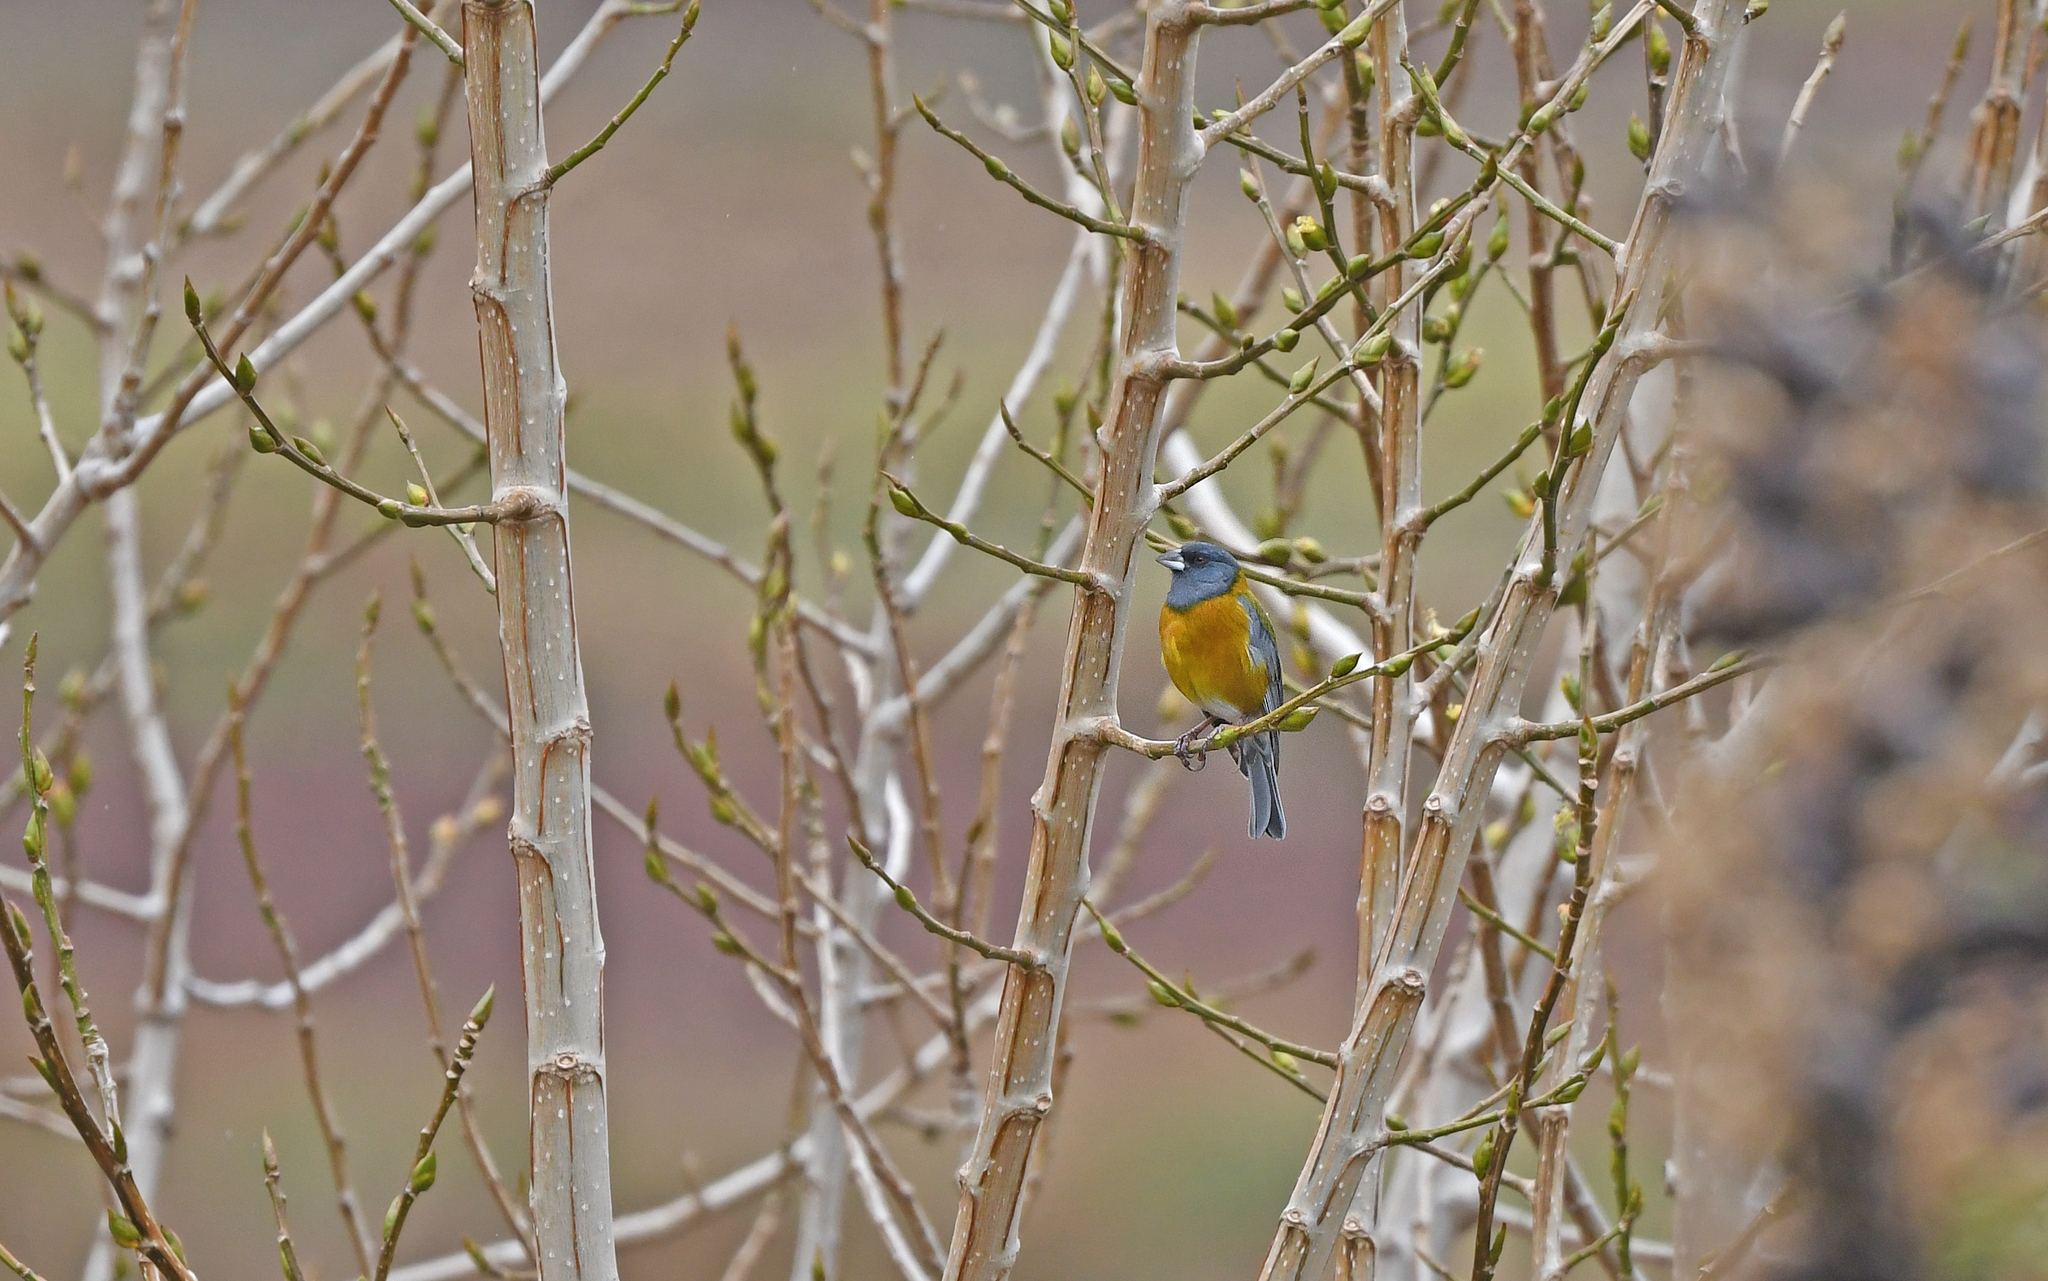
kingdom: Animalia
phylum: Chordata
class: Aves
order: Passeriformes
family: Thraupidae
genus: Phrygilus
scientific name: Phrygilus punensis
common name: Peruvian sierra finch
